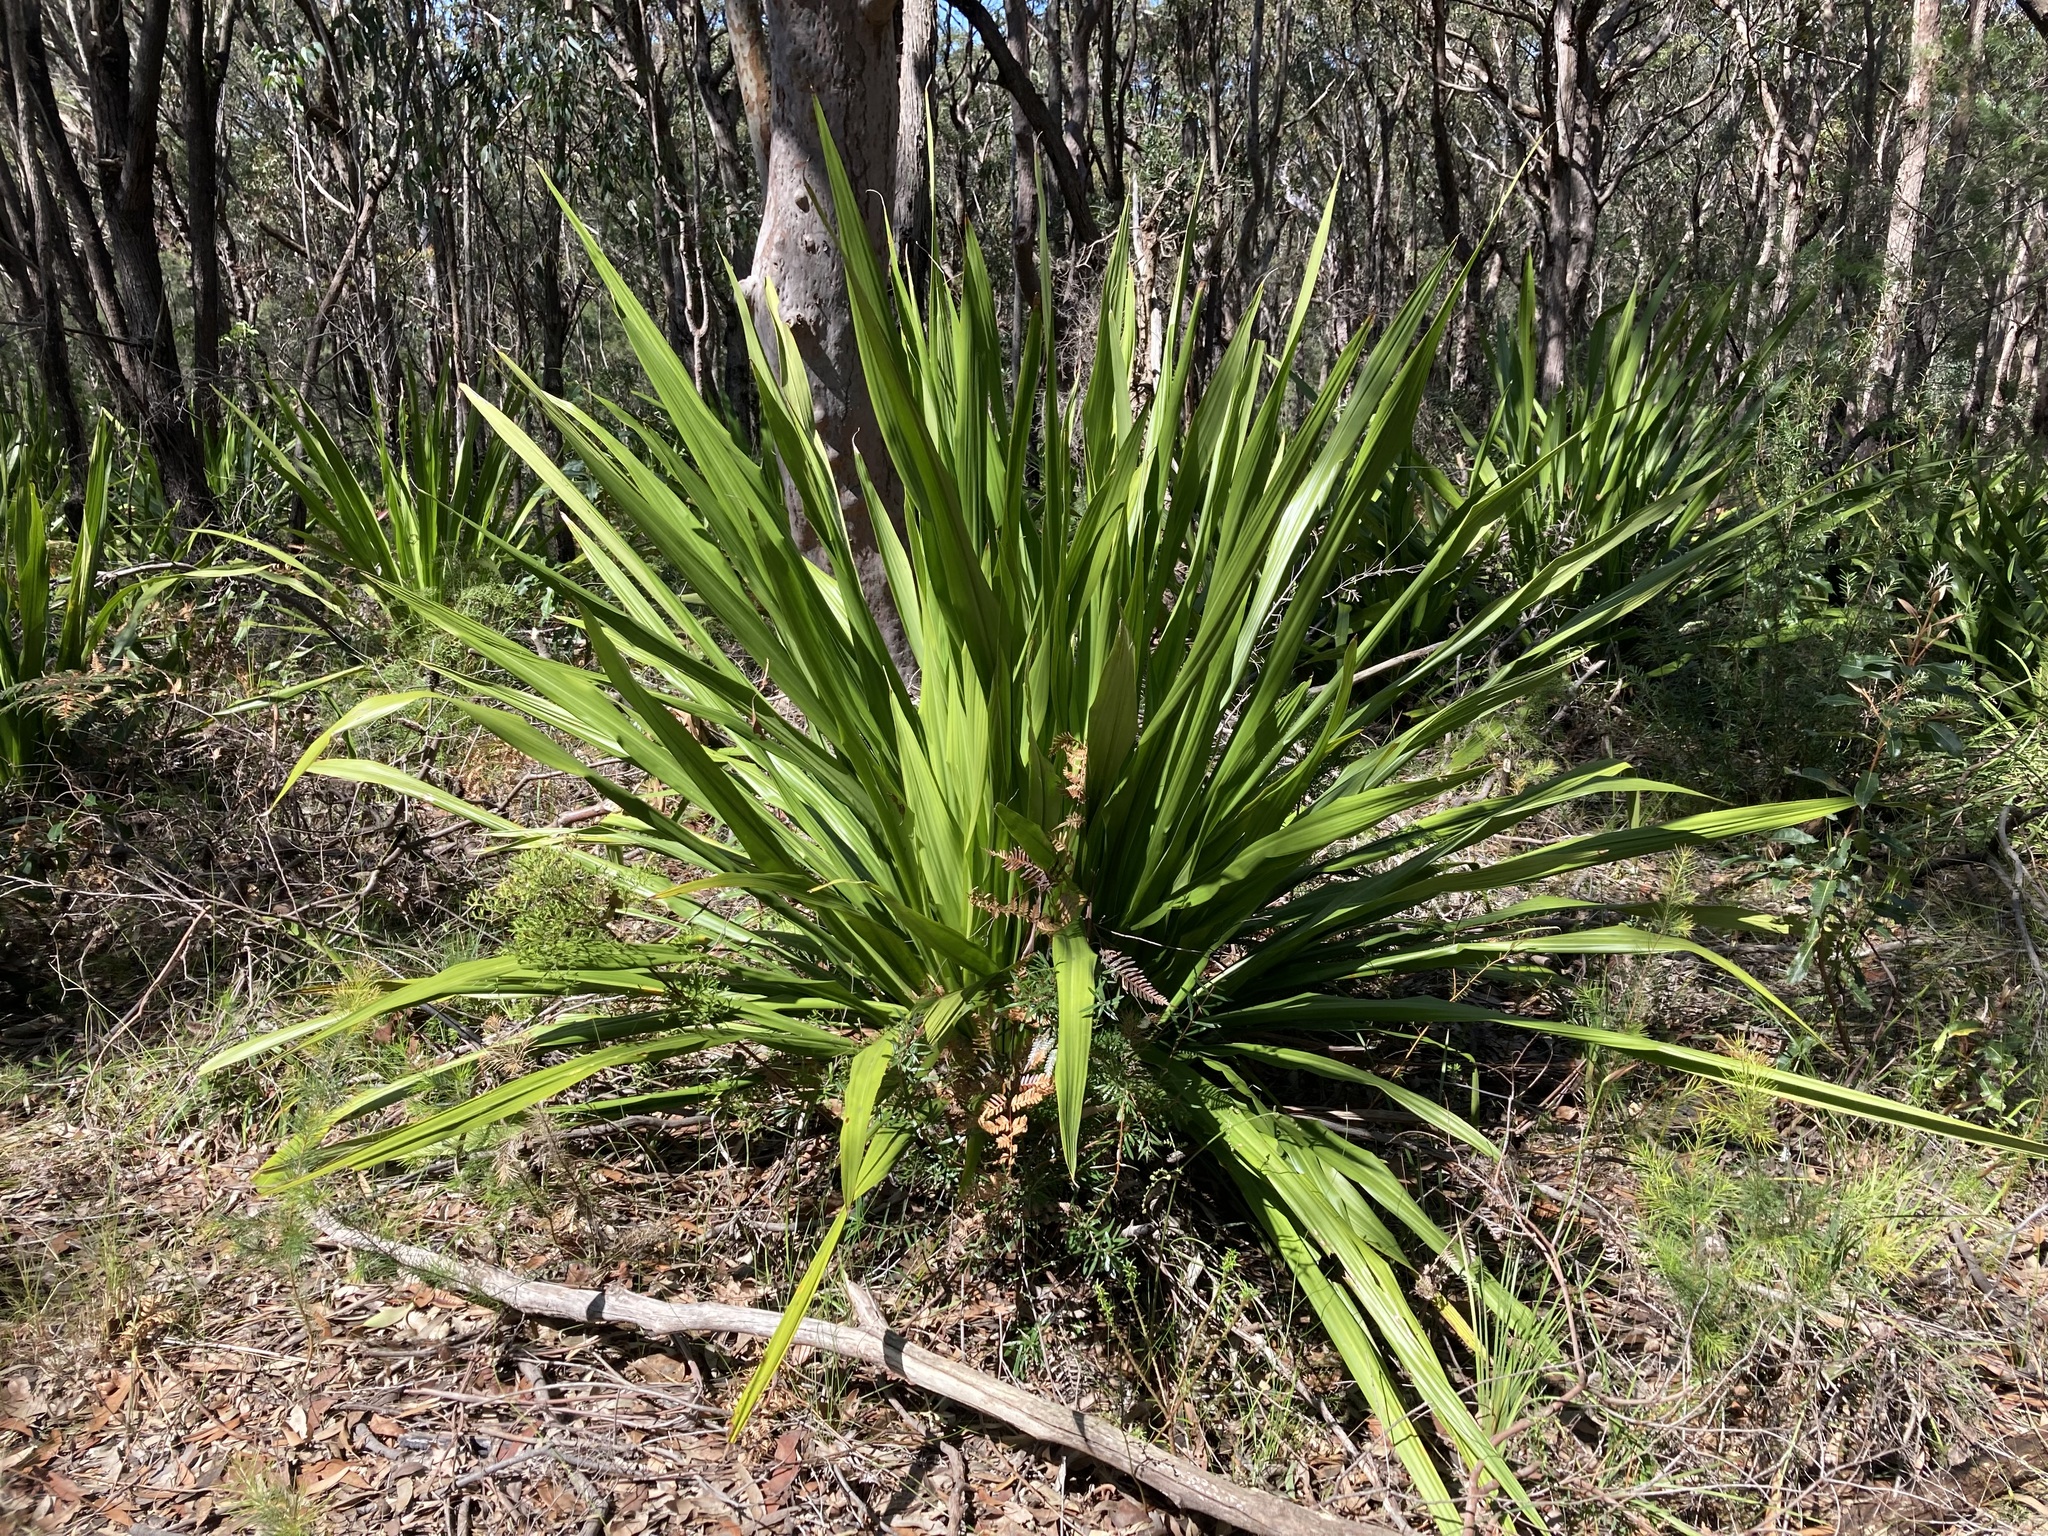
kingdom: Plantae
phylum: Tracheophyta
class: Liliopsida
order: Asparagales
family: Doryanthaceae
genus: Doryanthes
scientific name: Doryanthes excelsa
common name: Giant-lily
